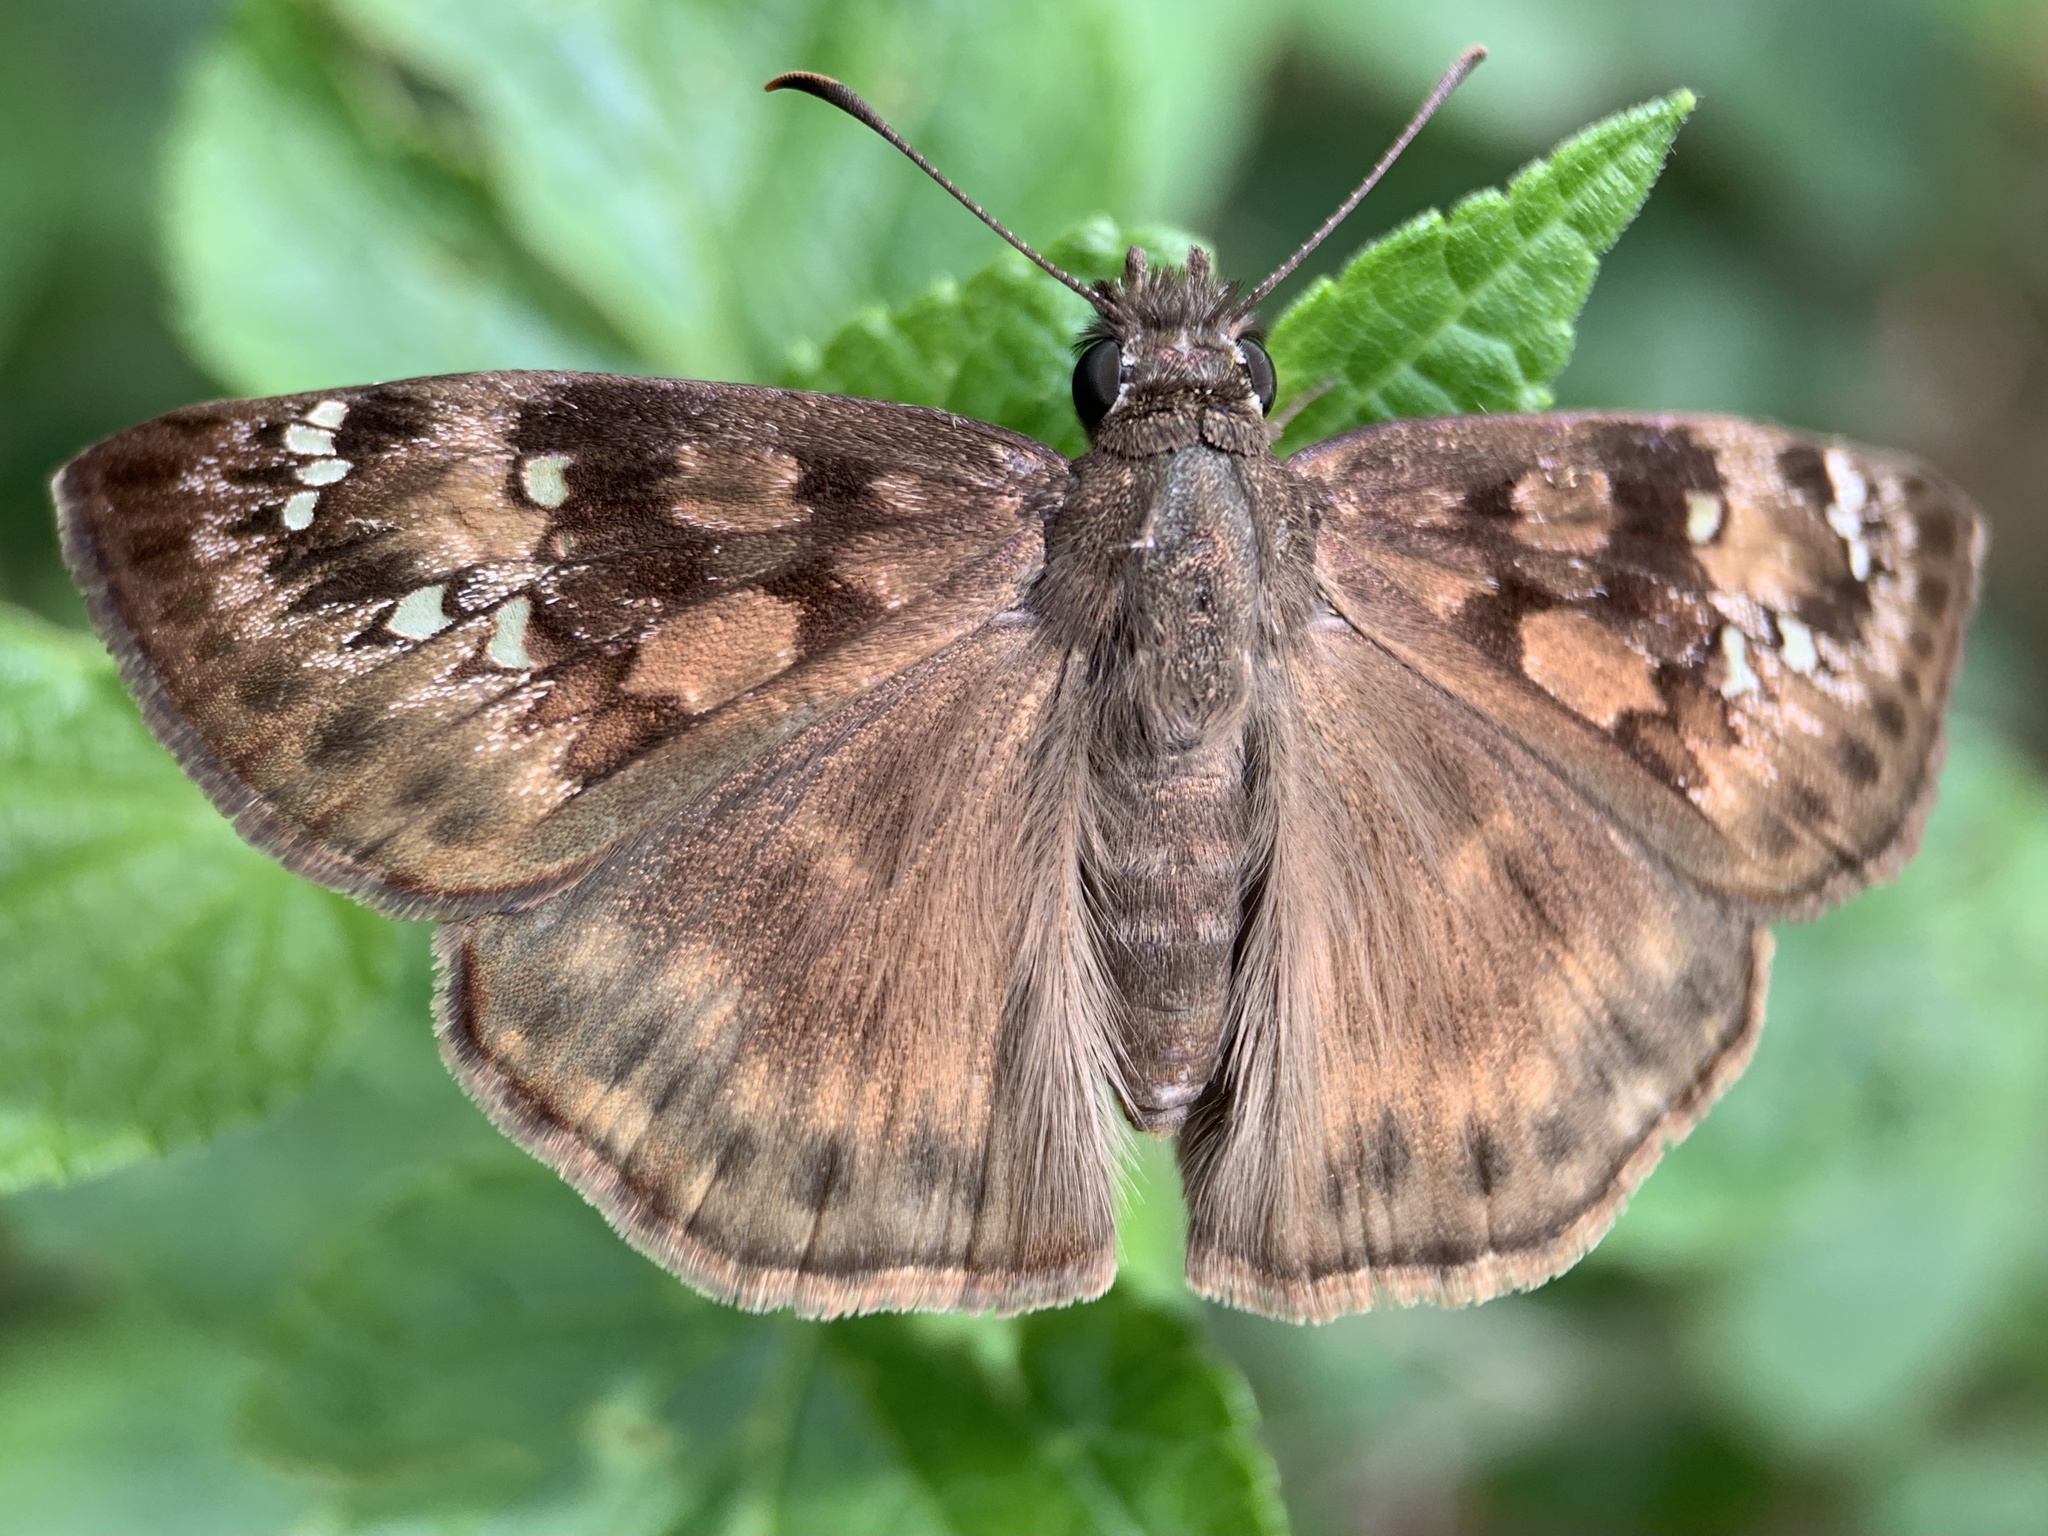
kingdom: Animalia
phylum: Arthropoda
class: Insecta
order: Lepidoptera
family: Hesperiidae
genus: Erynnis
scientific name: Erynnis horatius
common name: Horace's duskywing
